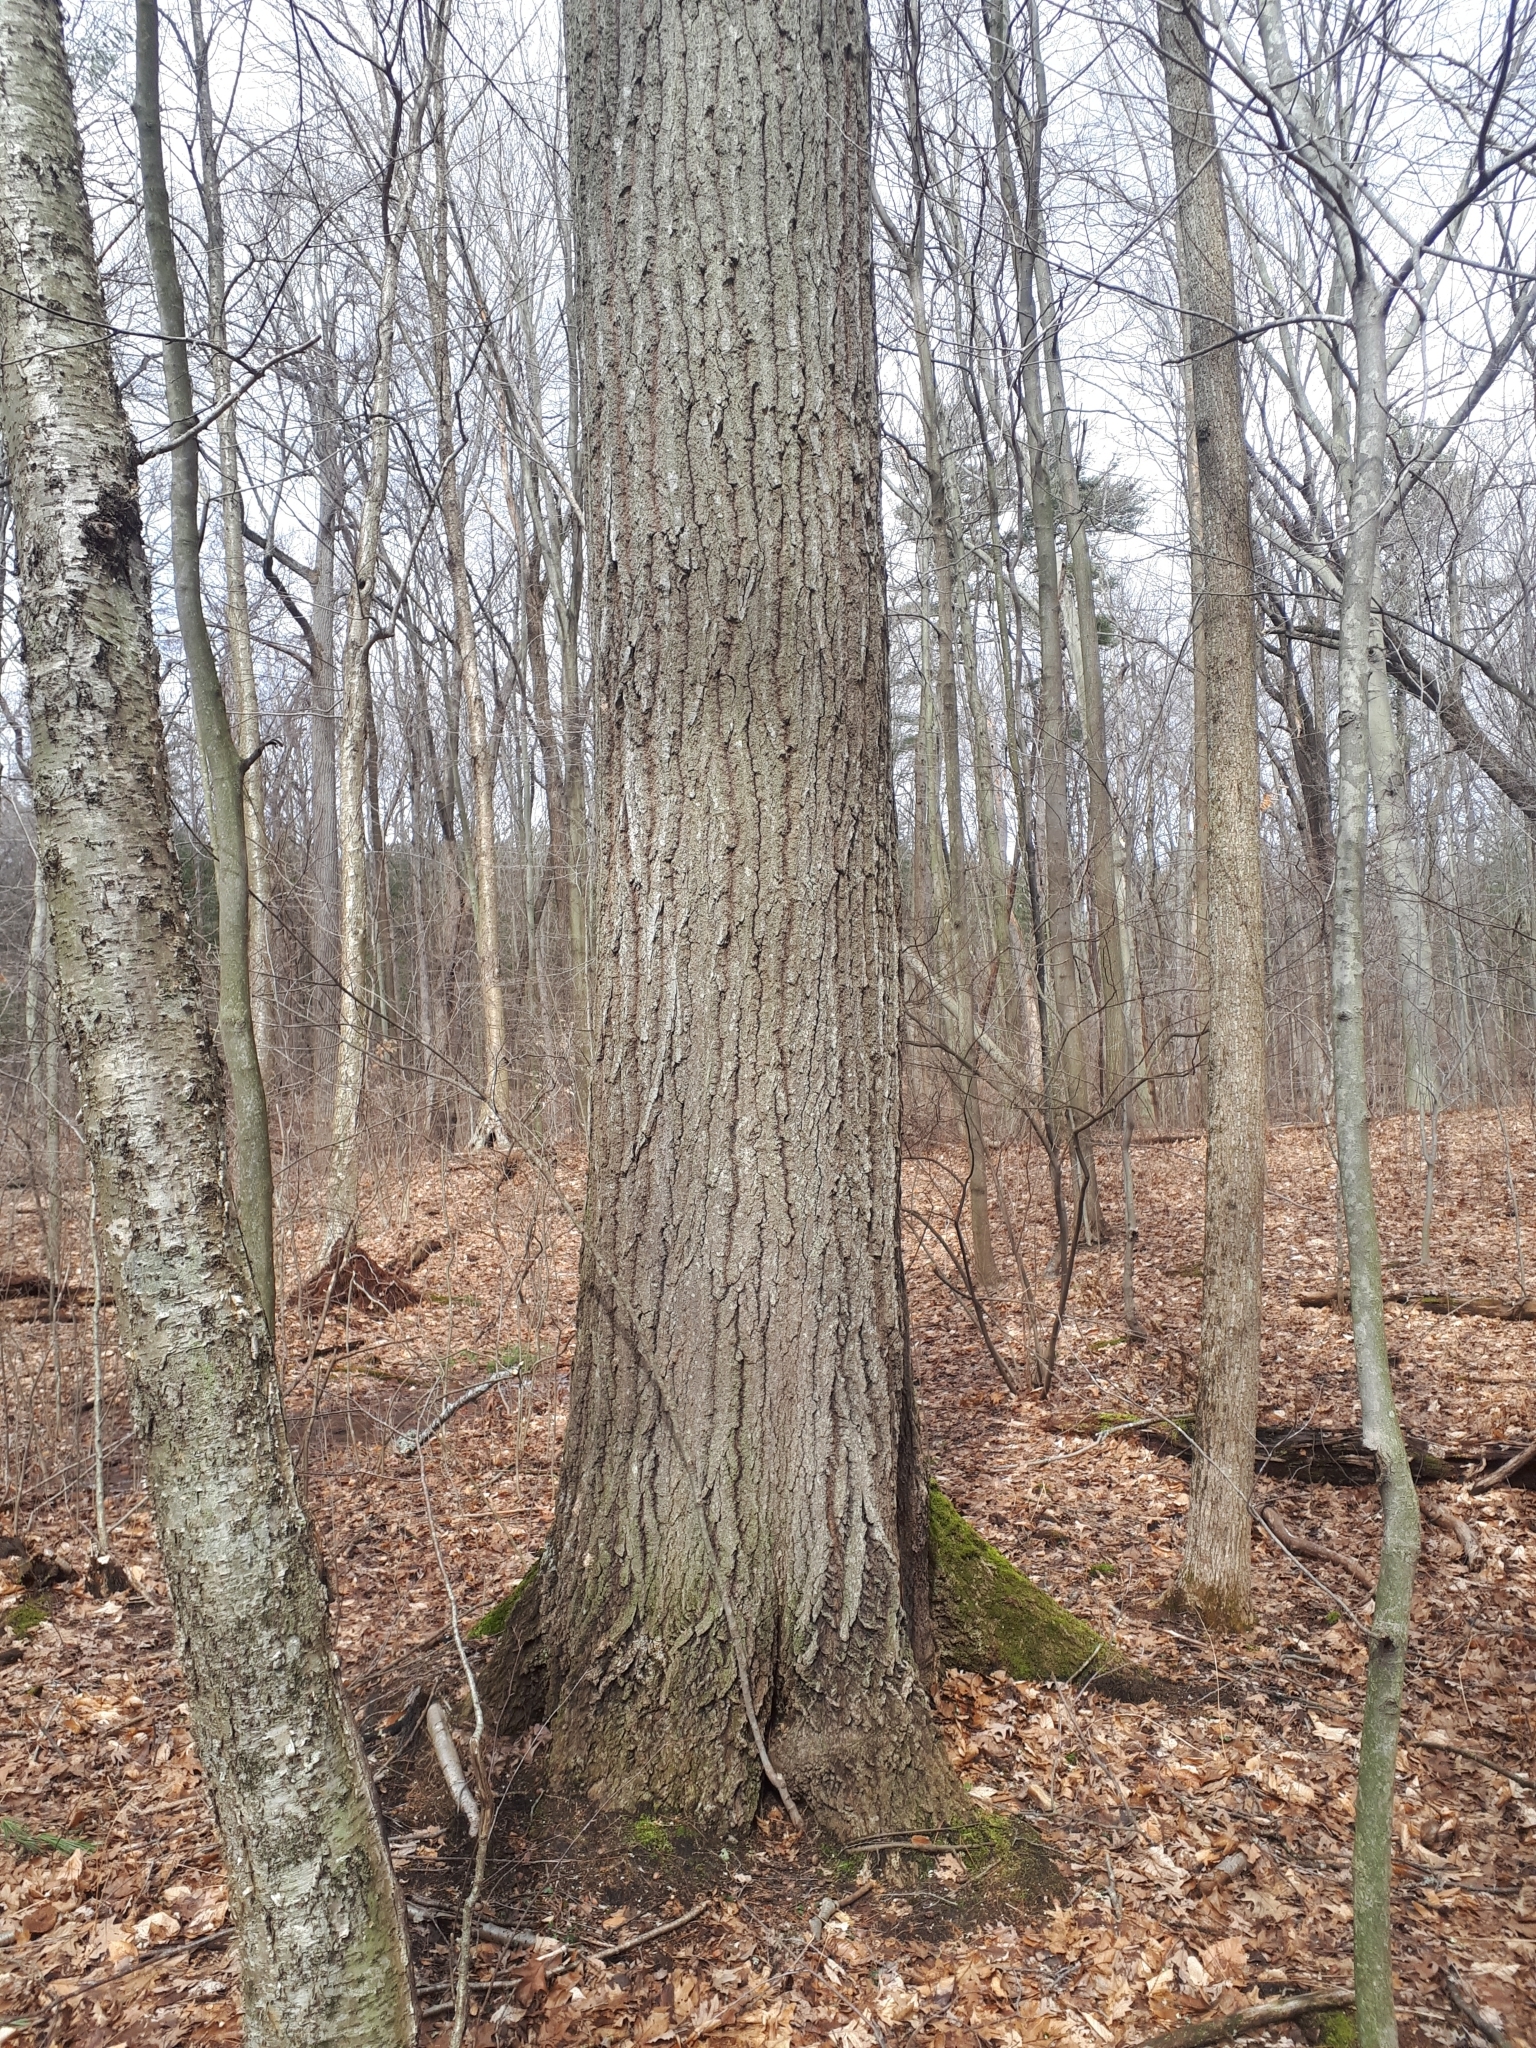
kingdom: Plantae
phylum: Tracheophyta
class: Magnoliopsida
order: Fagales
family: Fagaceae
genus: Quercus
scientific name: Quercus rubra
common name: Red oak
